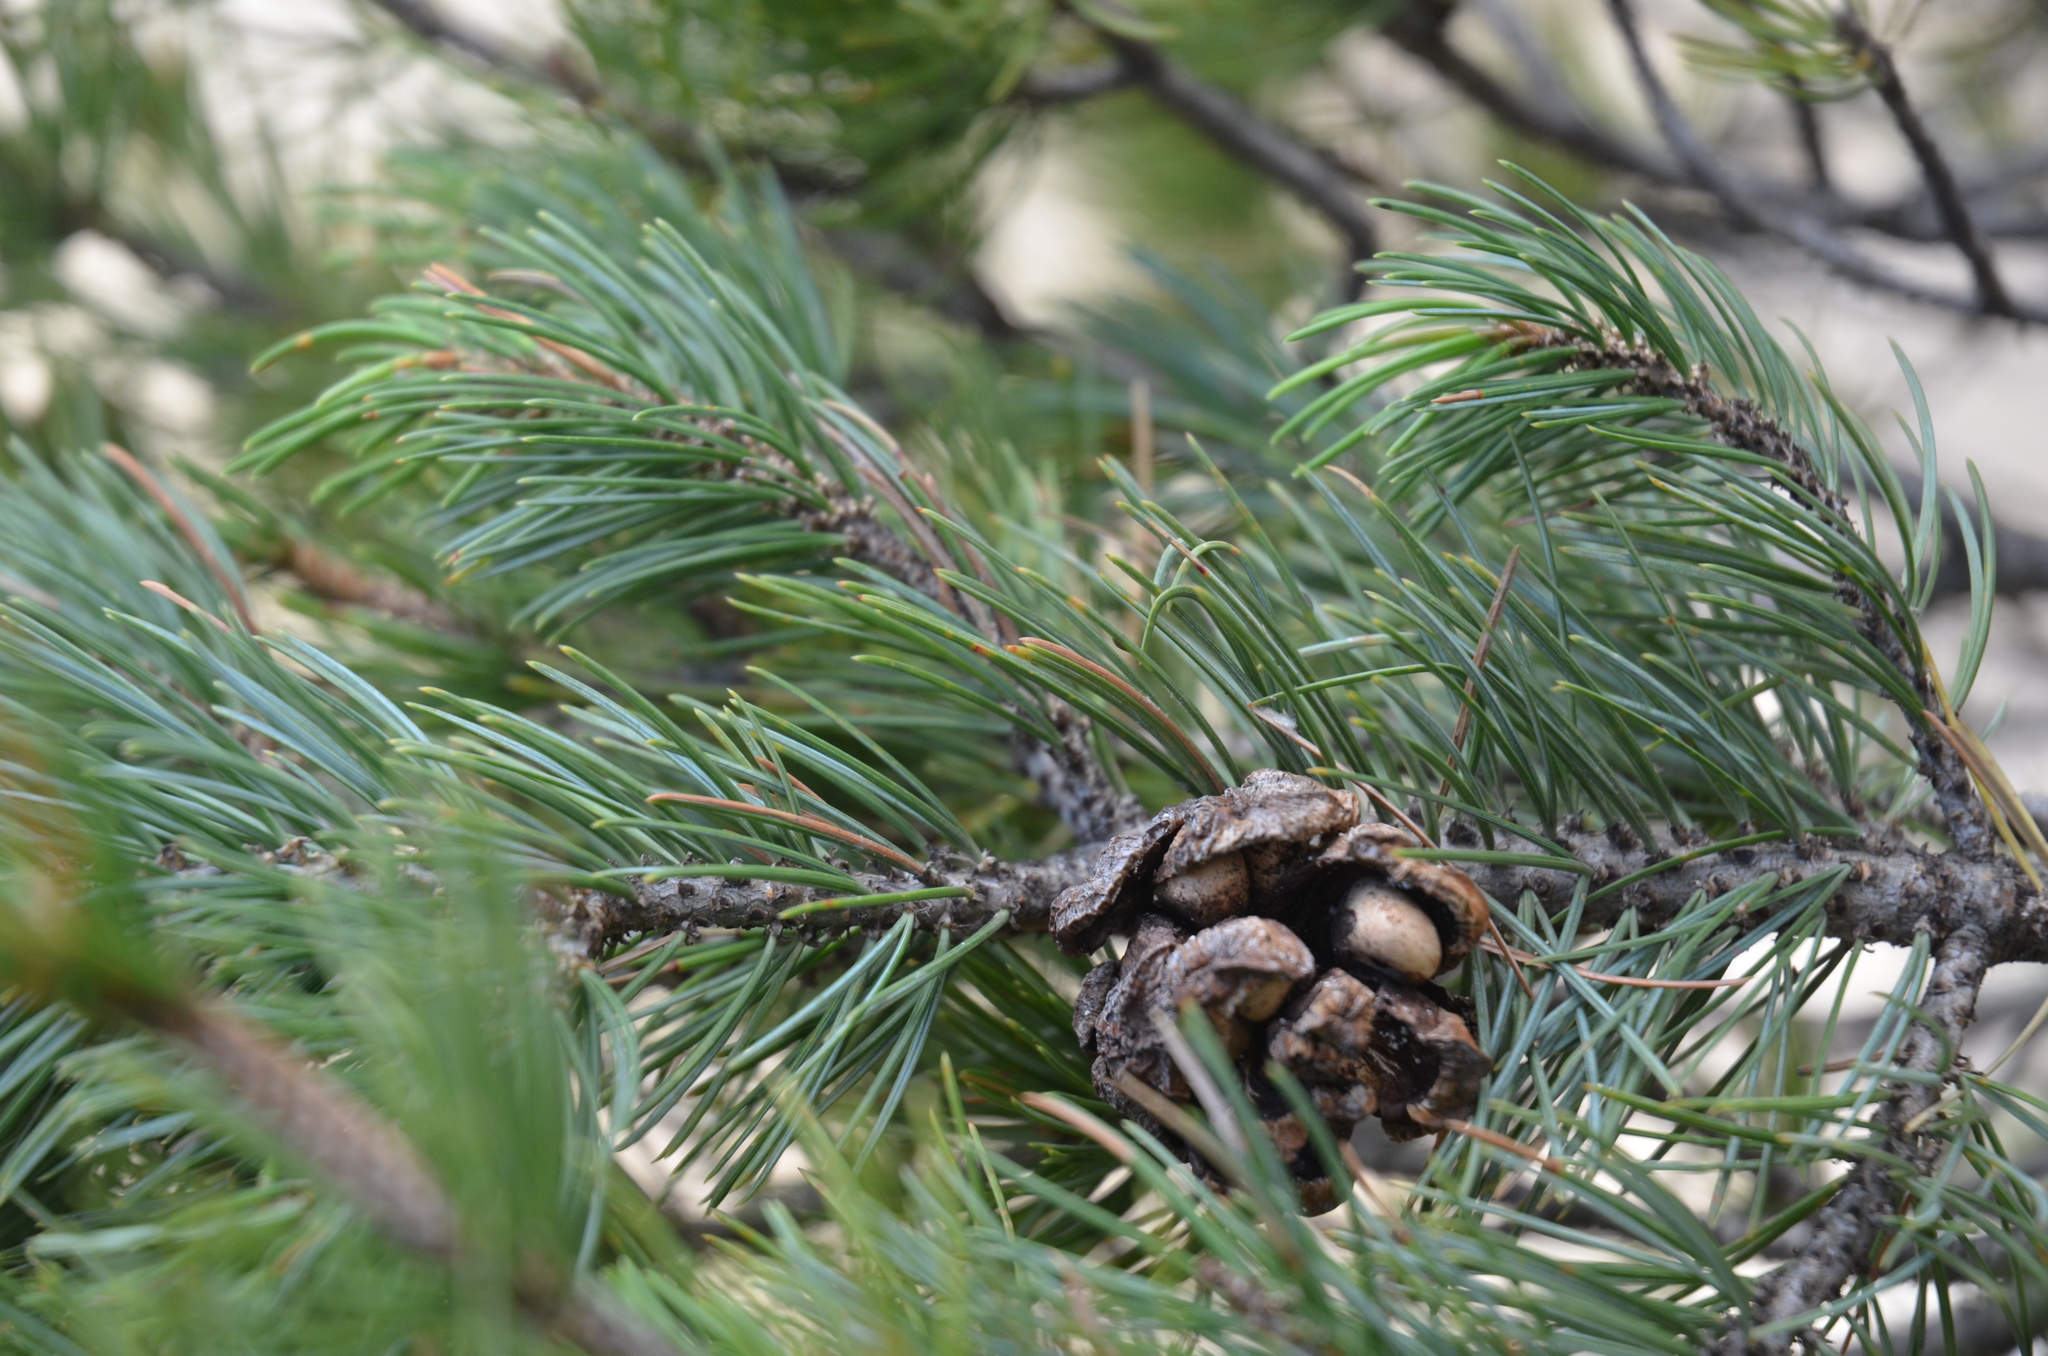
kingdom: Plantae
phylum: Tracheophyta
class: Pinopsida
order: Pinales
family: Pinaceae
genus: Pinus
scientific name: Pinus cembroides
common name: Mexican nut pine
